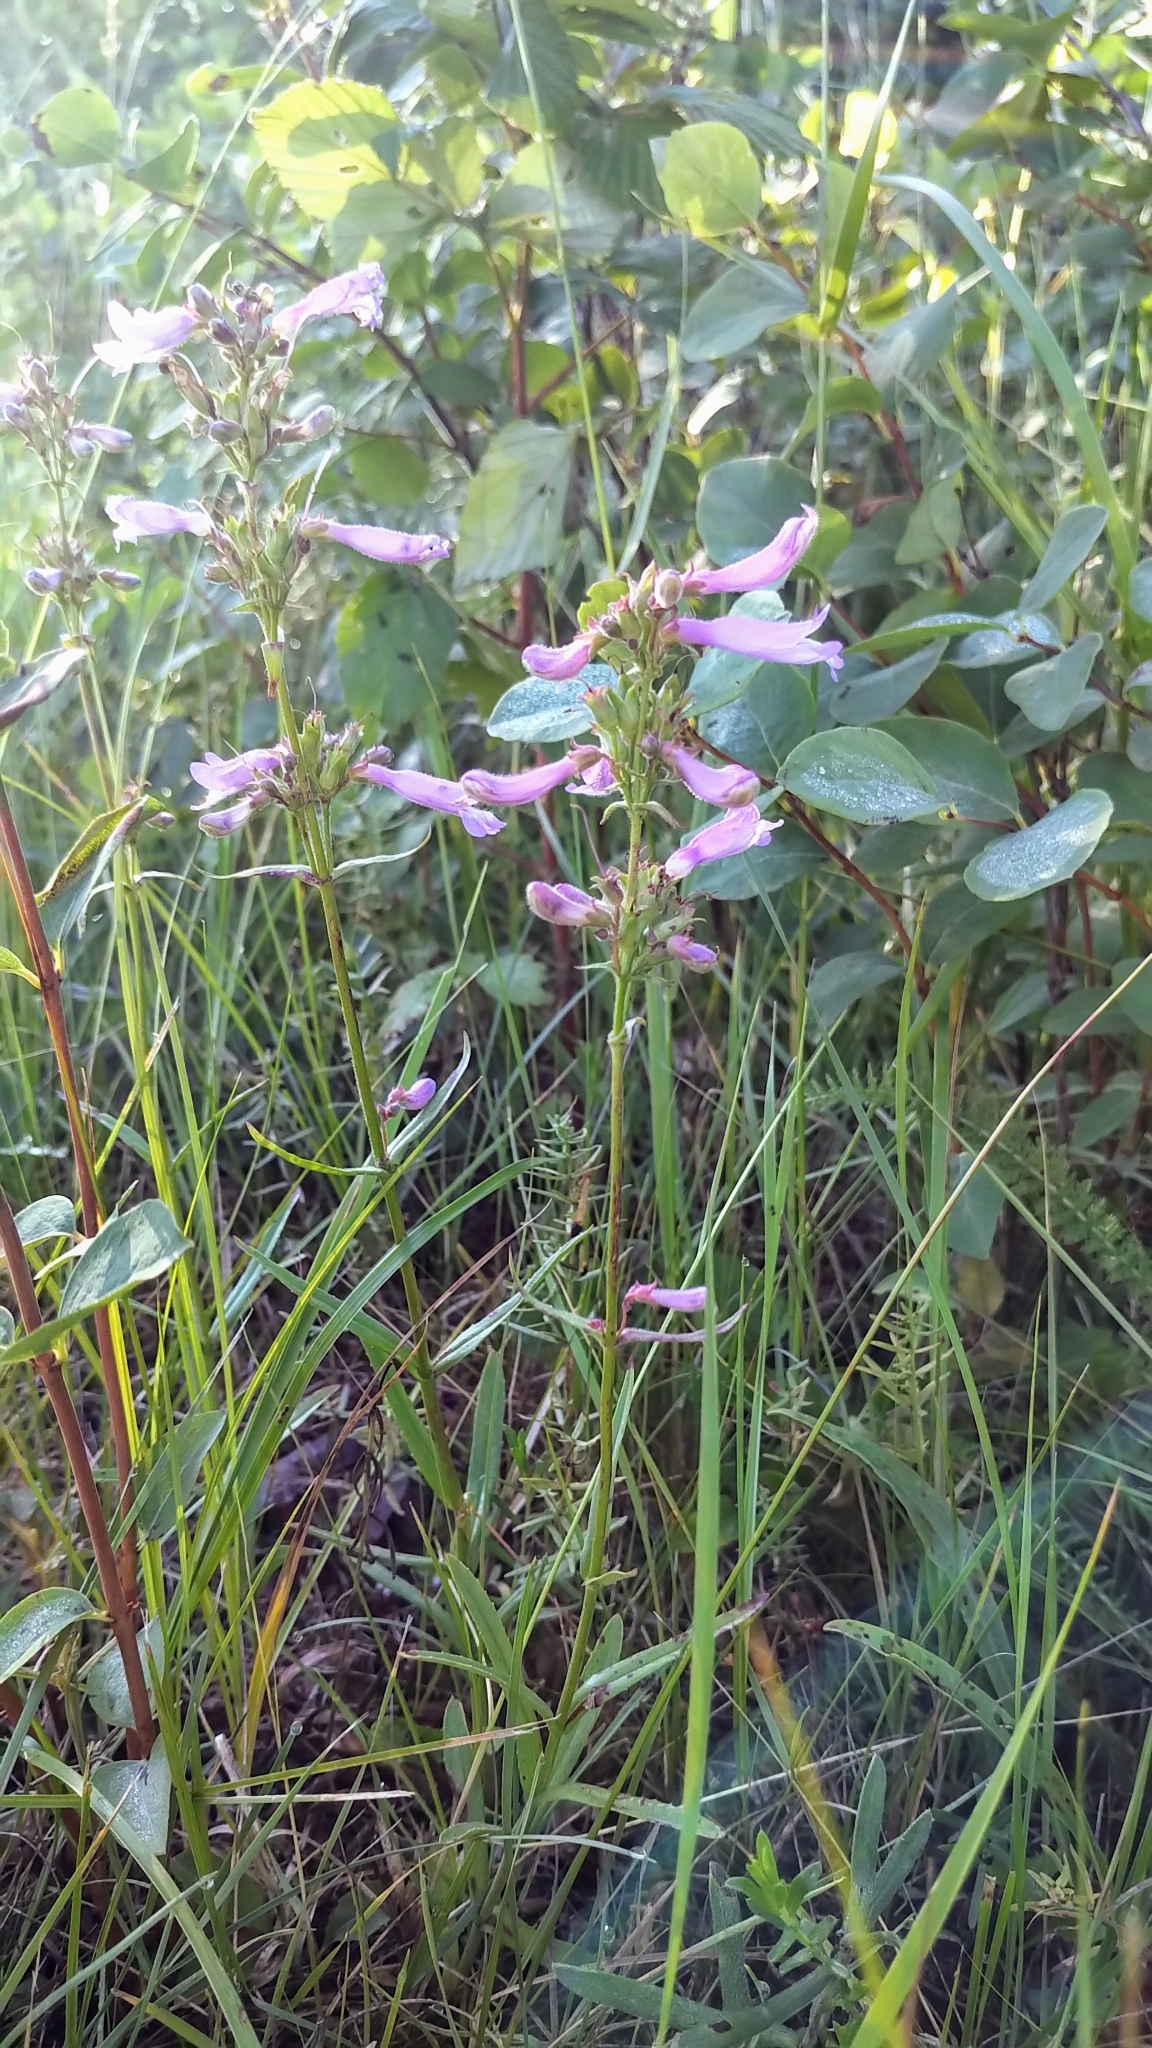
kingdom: Plantae
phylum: Tracheophyta
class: Magnoliopsida
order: Lamiales
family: Plantaginaceae
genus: Penstemon
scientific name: Penstemon gracilis
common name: Slender beardtongue
